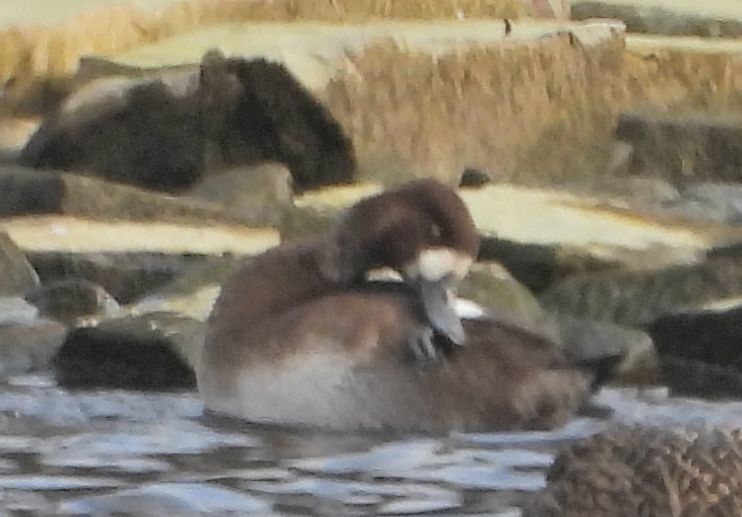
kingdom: Animalia
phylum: Chordata
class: Aves
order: Anseriformes
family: Anatidae
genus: Aythya
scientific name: Aythya marila
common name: Greater scaup
